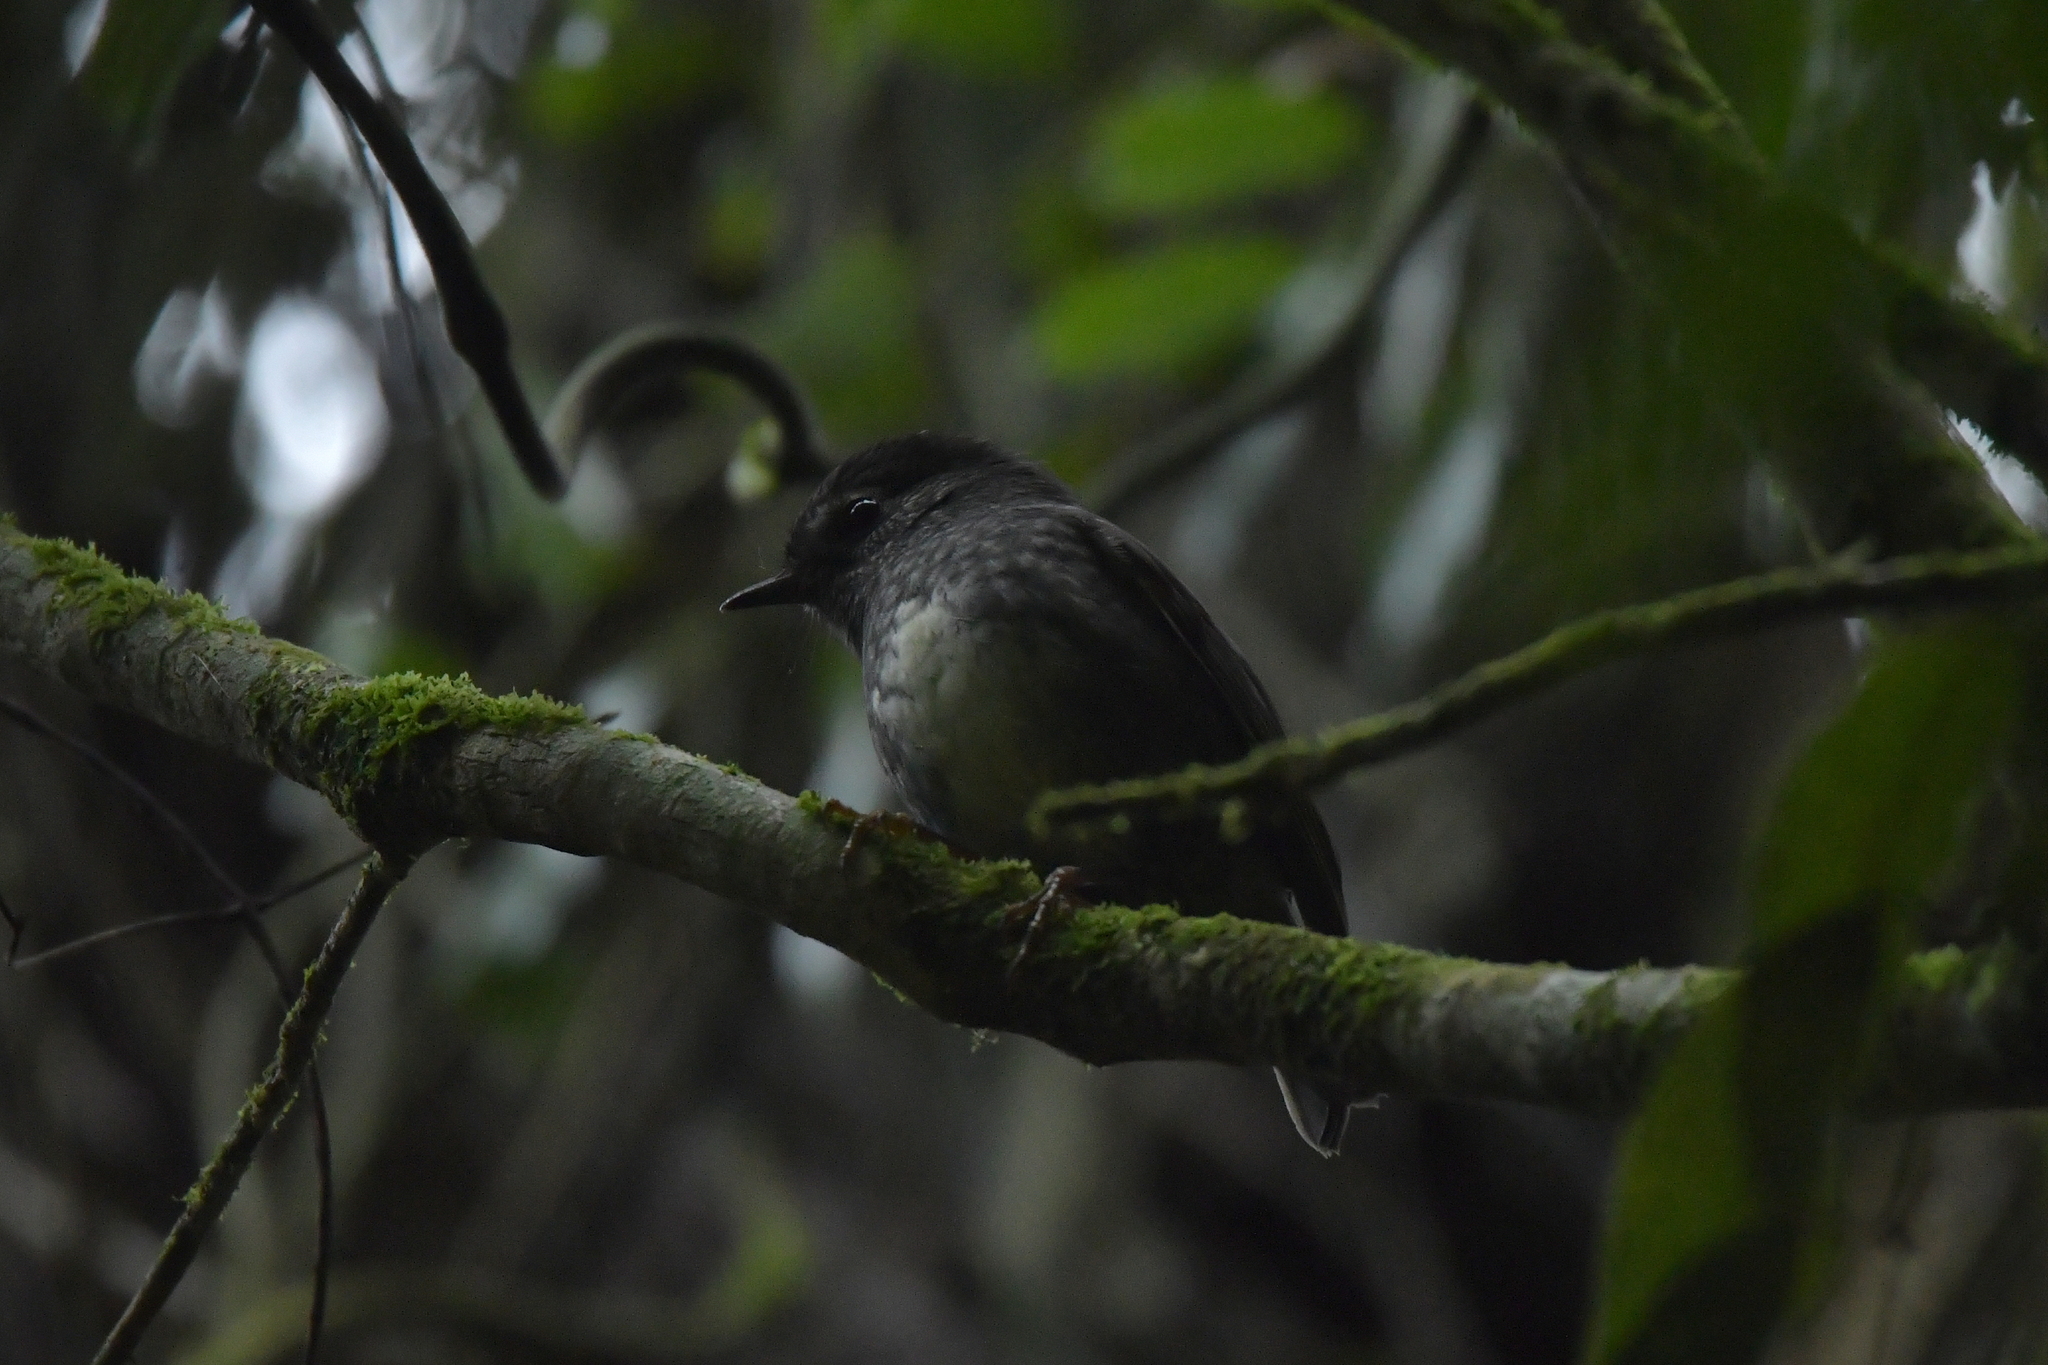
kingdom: Animalia
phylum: Chordata
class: Aves
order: Passeriformes
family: Petroicidae
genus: Petroica
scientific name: Petroica australis
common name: New zealand robin
